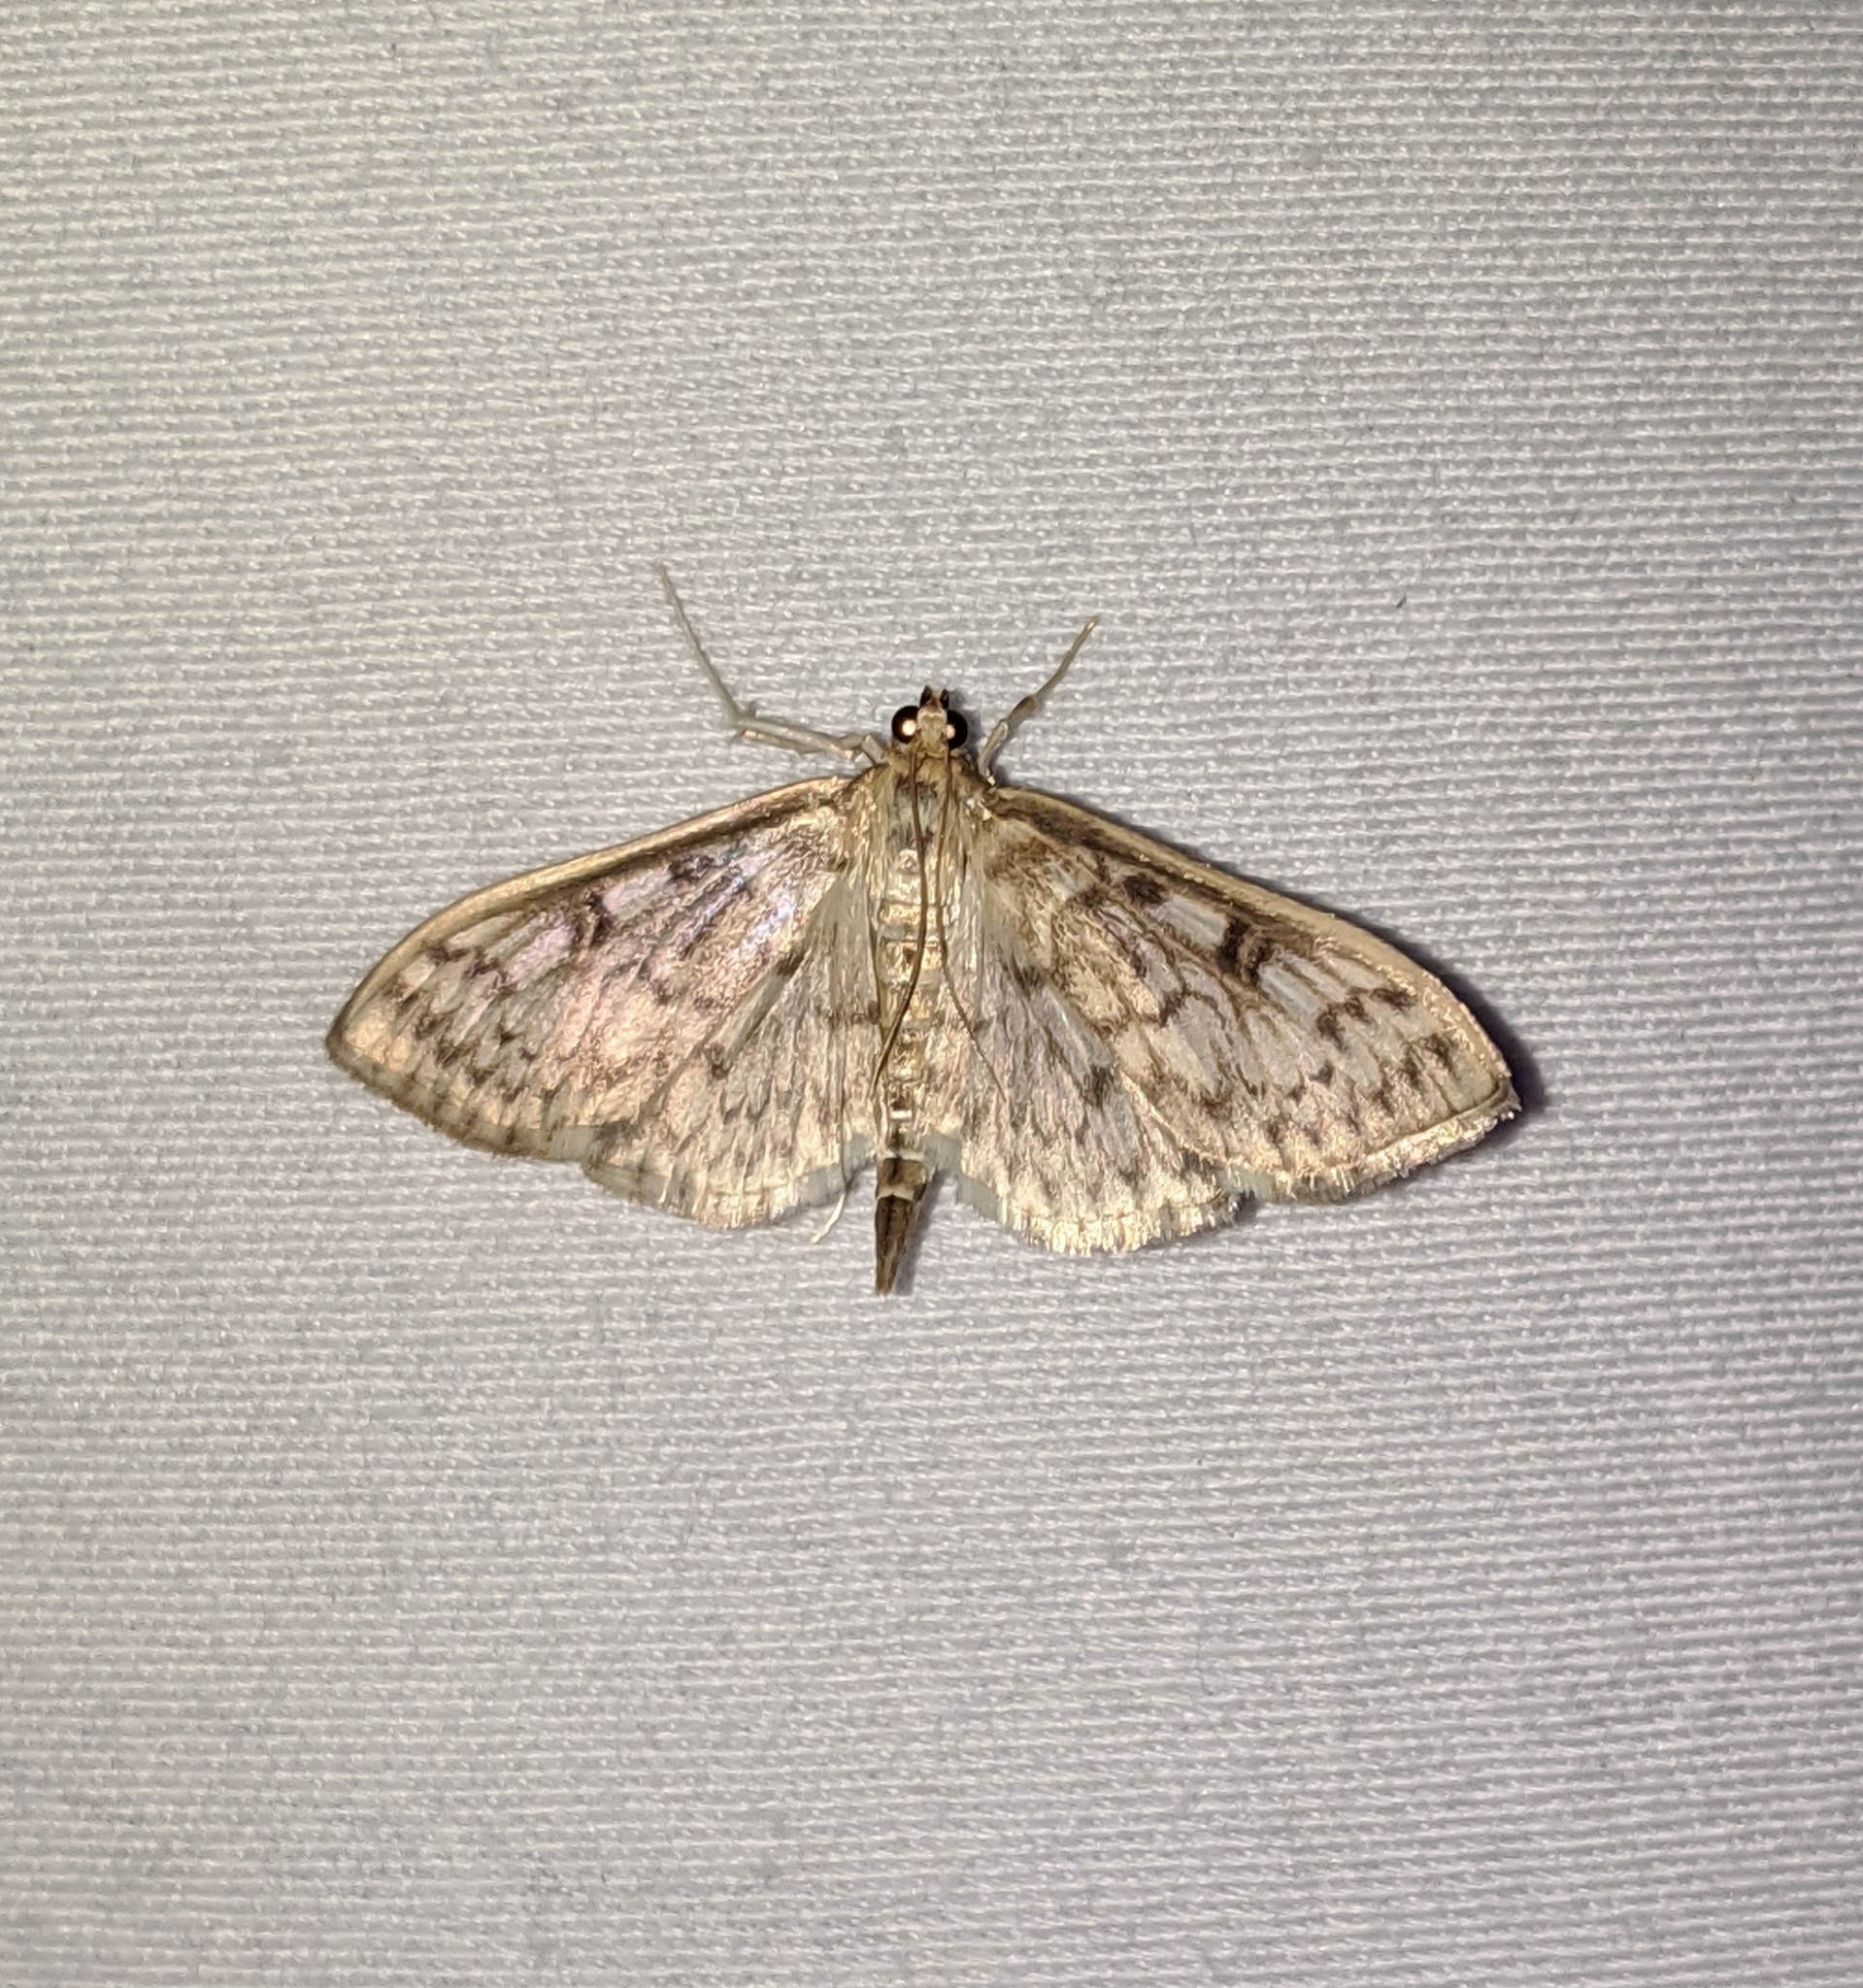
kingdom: Animalia
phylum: Arthropoda
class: Insecta
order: Lepidoptera
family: Crambidae
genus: Herpetogramma
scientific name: Herpetogramma aquilonalis
